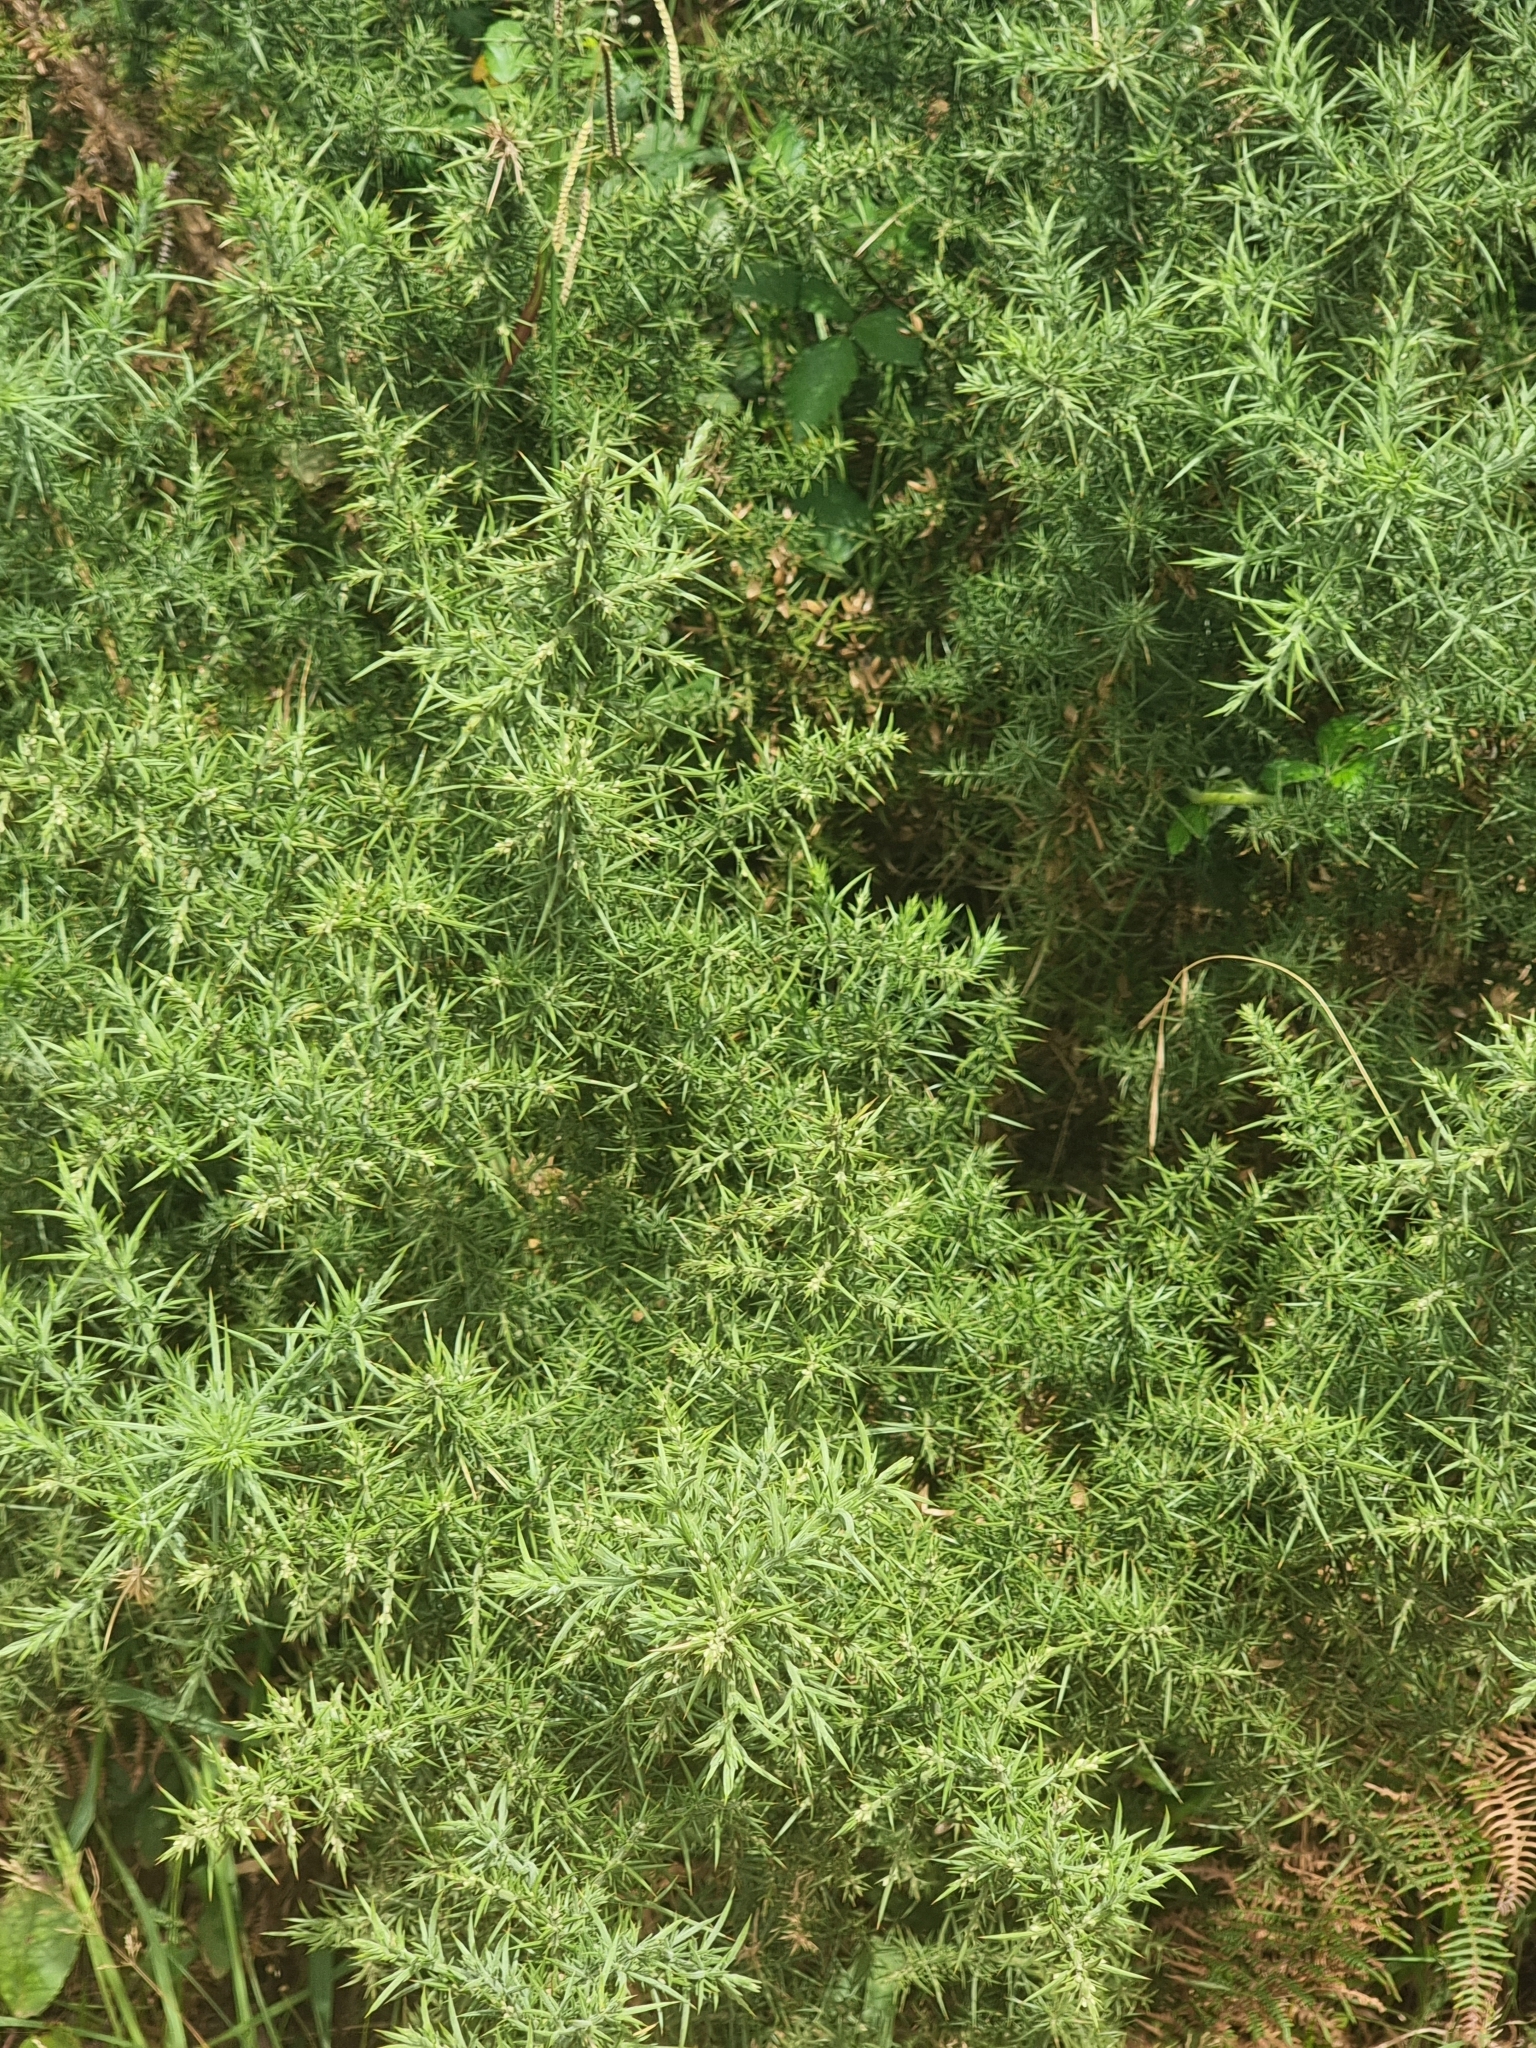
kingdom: Plantae
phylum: Tracheophyta
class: Magnoliopsida
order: Fabales
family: Fabaceae
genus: Ulex
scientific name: Ulex europaeus
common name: Common gorse
